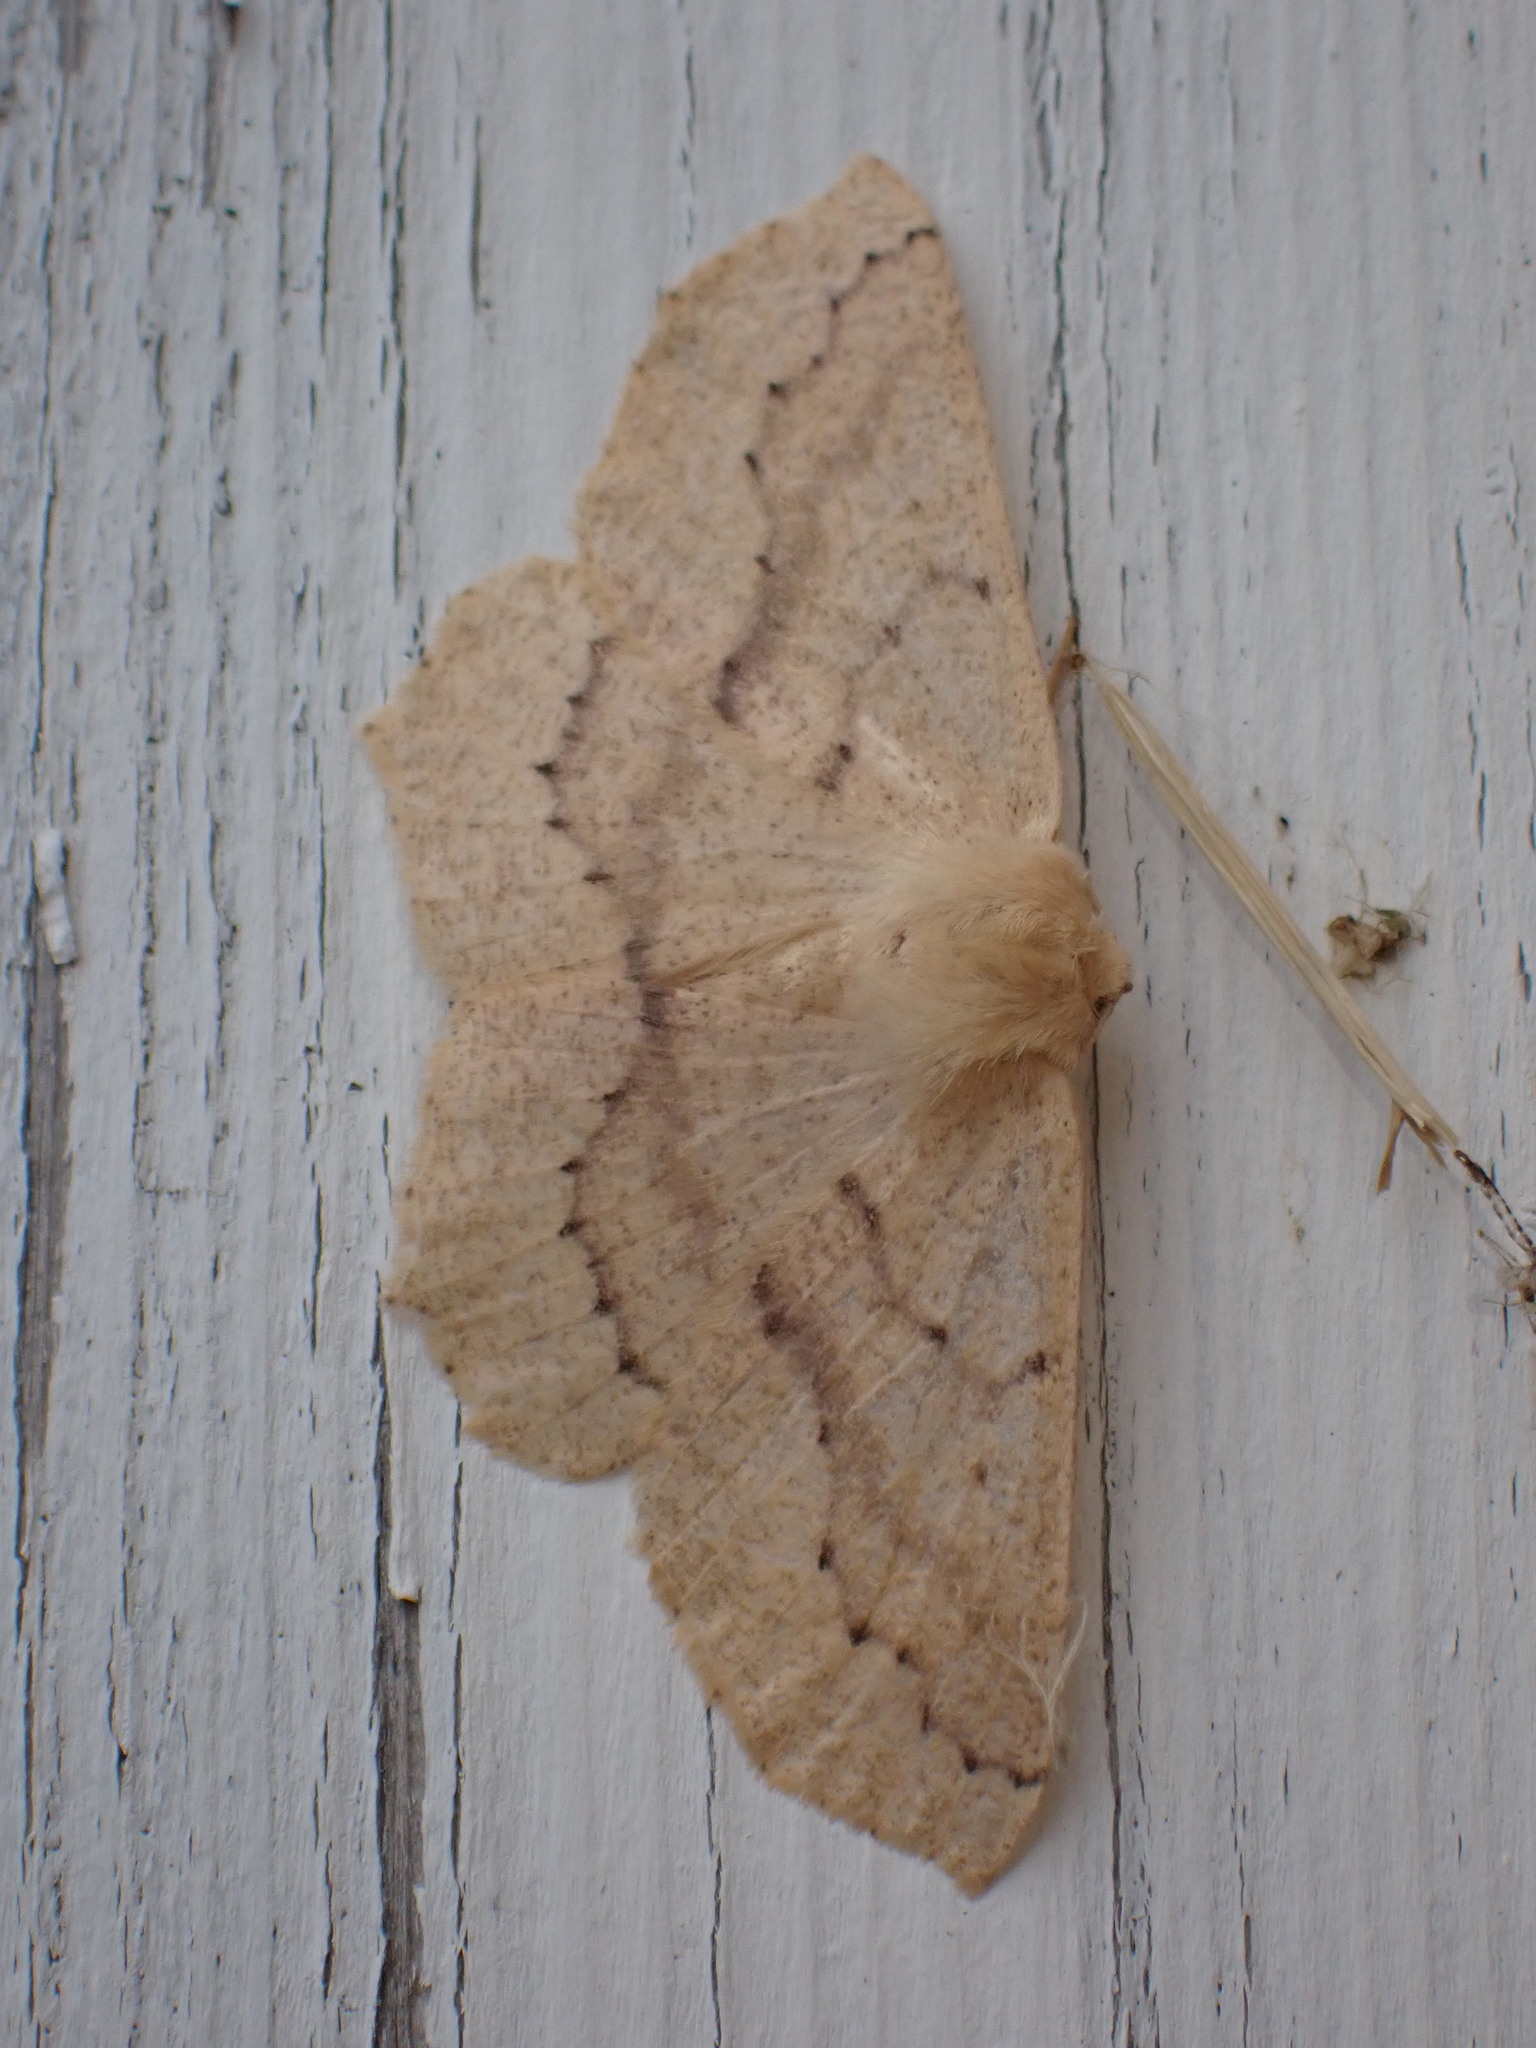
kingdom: Animalia
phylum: Arthropoda
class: Insecta
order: Lepidoptera
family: Geometridae
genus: Sabulodes
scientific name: Sabulodes aegrotata
